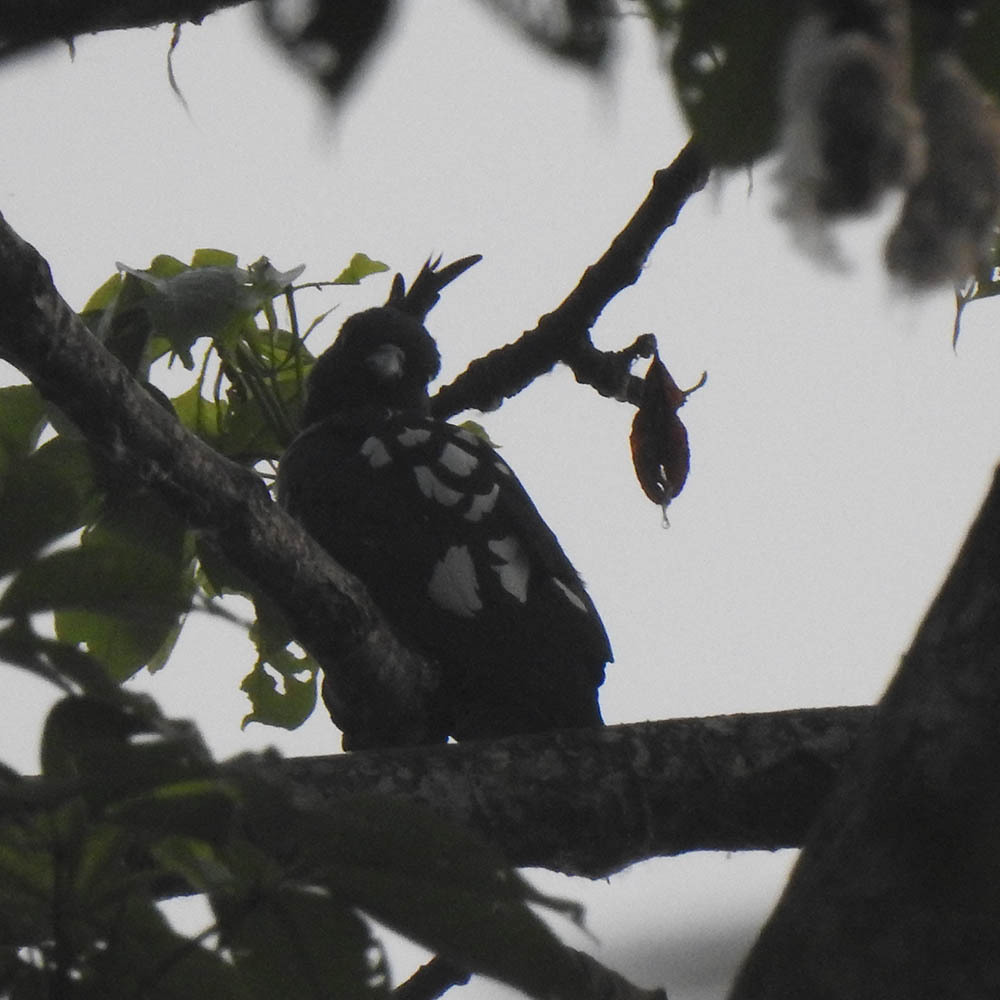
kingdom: Animalia
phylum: Chordata
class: Aves
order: Accipitriformes
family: Accipitridae
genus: Aviceda
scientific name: Aviceda leuphotes
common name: Black baza
